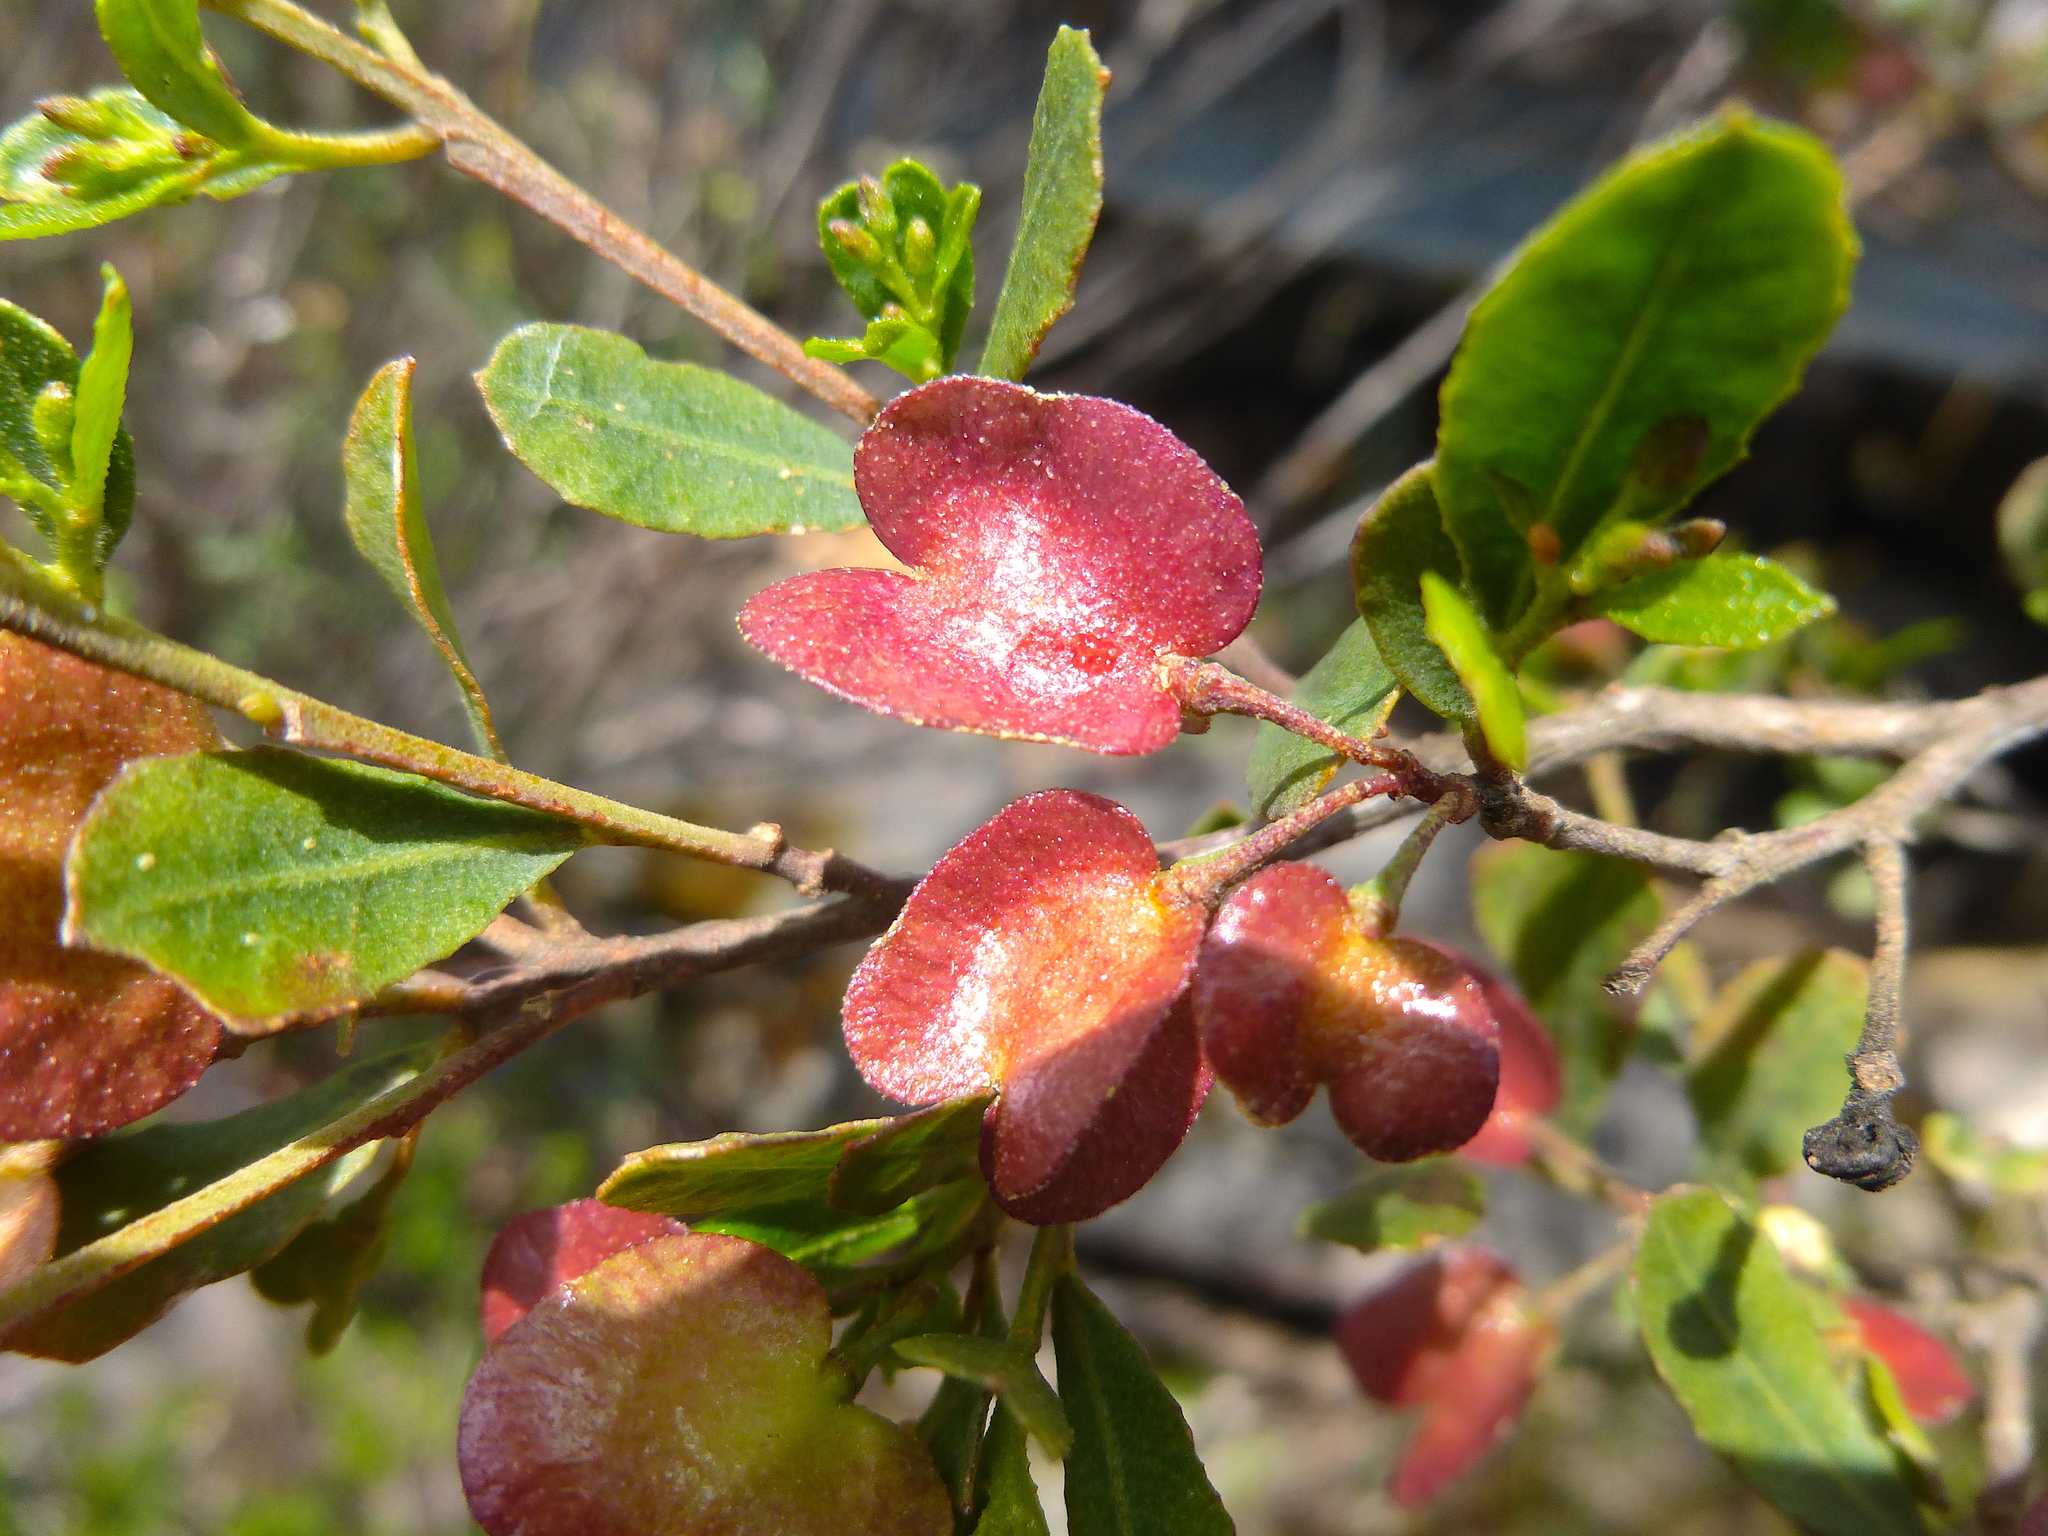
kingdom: Plantae
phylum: Tracheophyta
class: Magnoliopsida
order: Sapindales
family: Sapindaceae
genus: Dodonaea
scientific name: Dodonaea viscosa
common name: Hopbush
